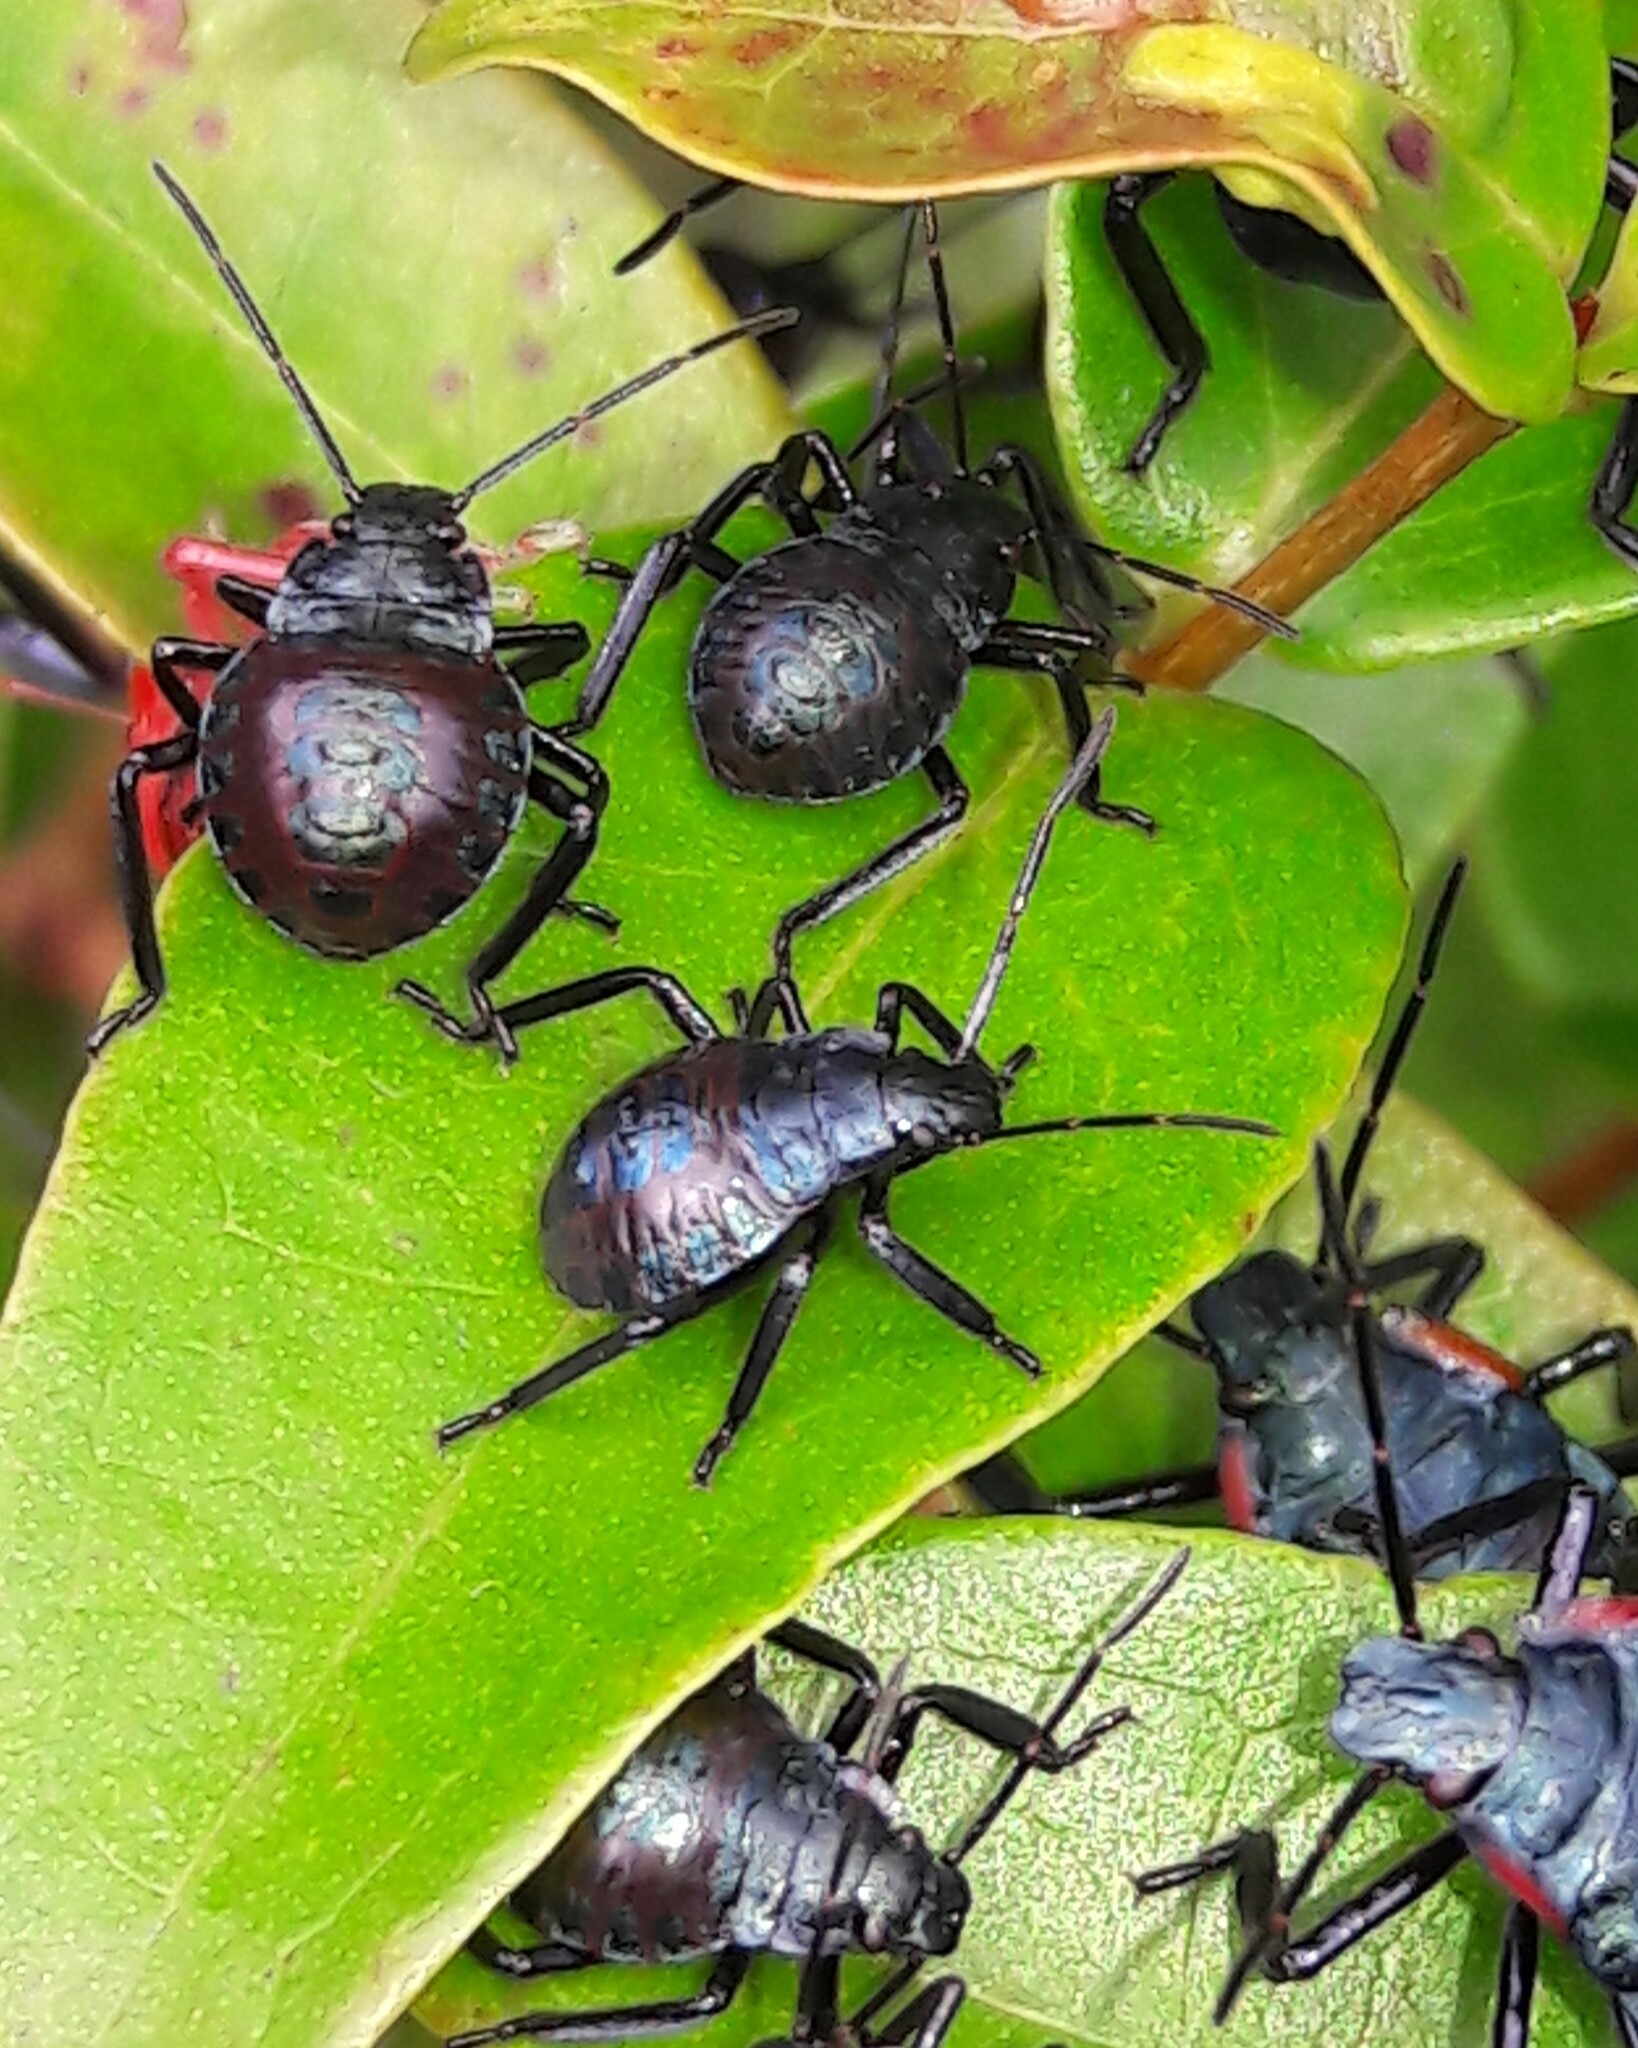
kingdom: Animalia
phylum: Arthropoda
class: Insecta
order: Hemiptera
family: Pentatomidae
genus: Alcaeorrhynchus
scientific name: Alcaeorrhynchus grandis
